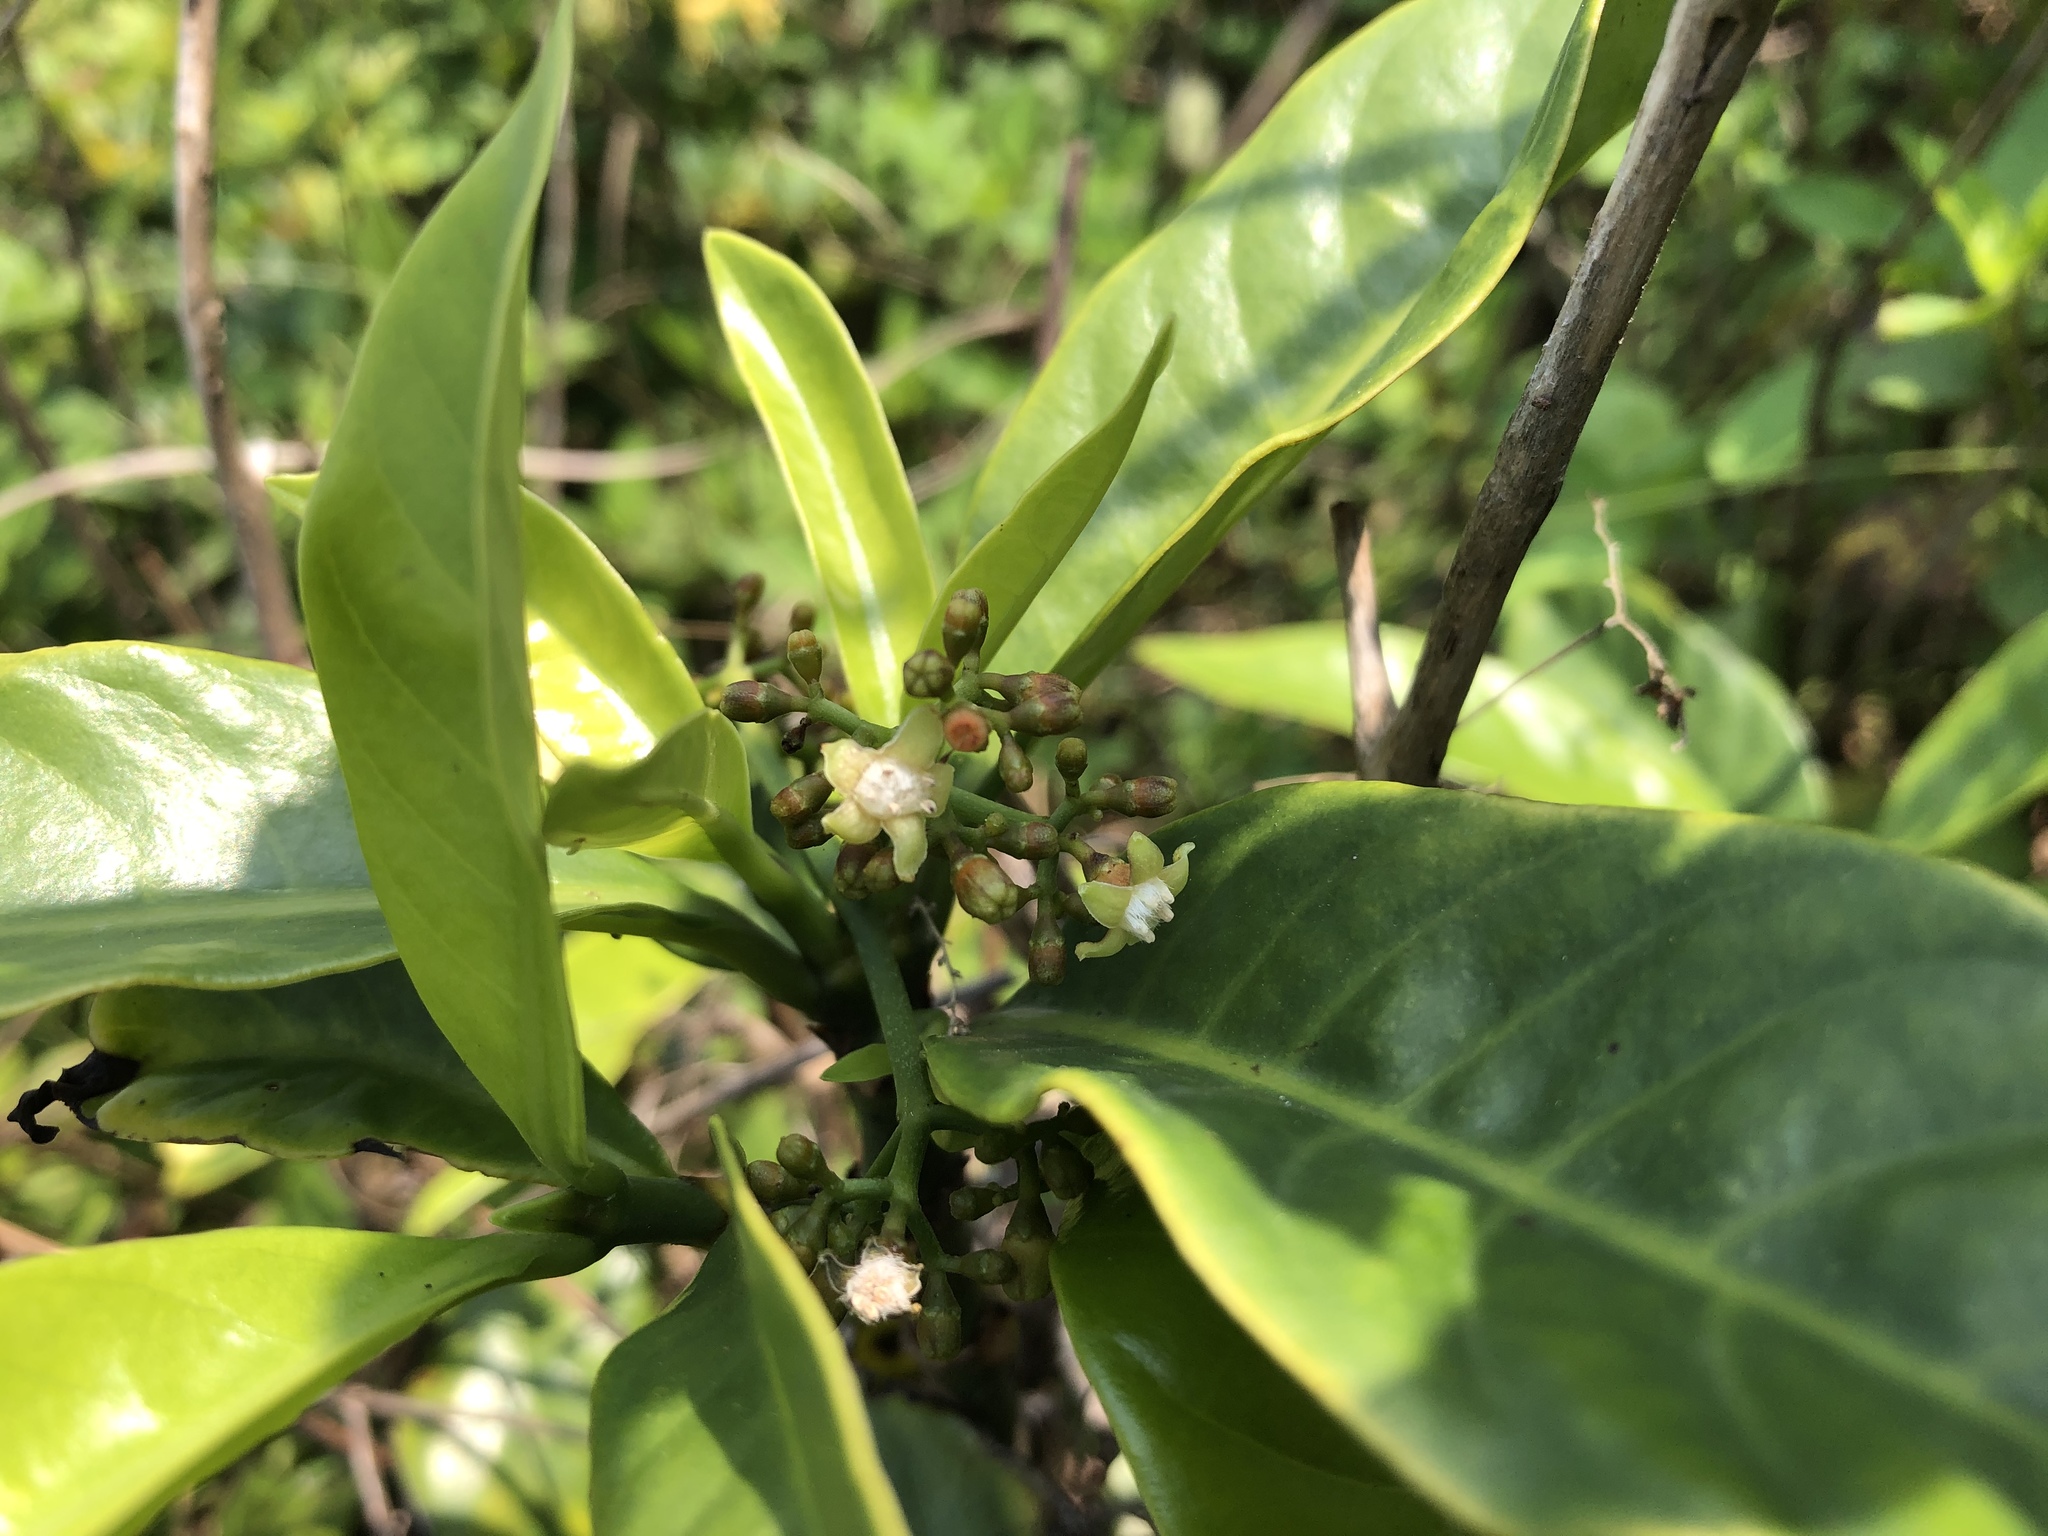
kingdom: Plantae
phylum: Tracheophyta
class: Magnoliopsida
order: Gentianales
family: Rubiaceae
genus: Psychotria
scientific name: Psychotria asiatica
